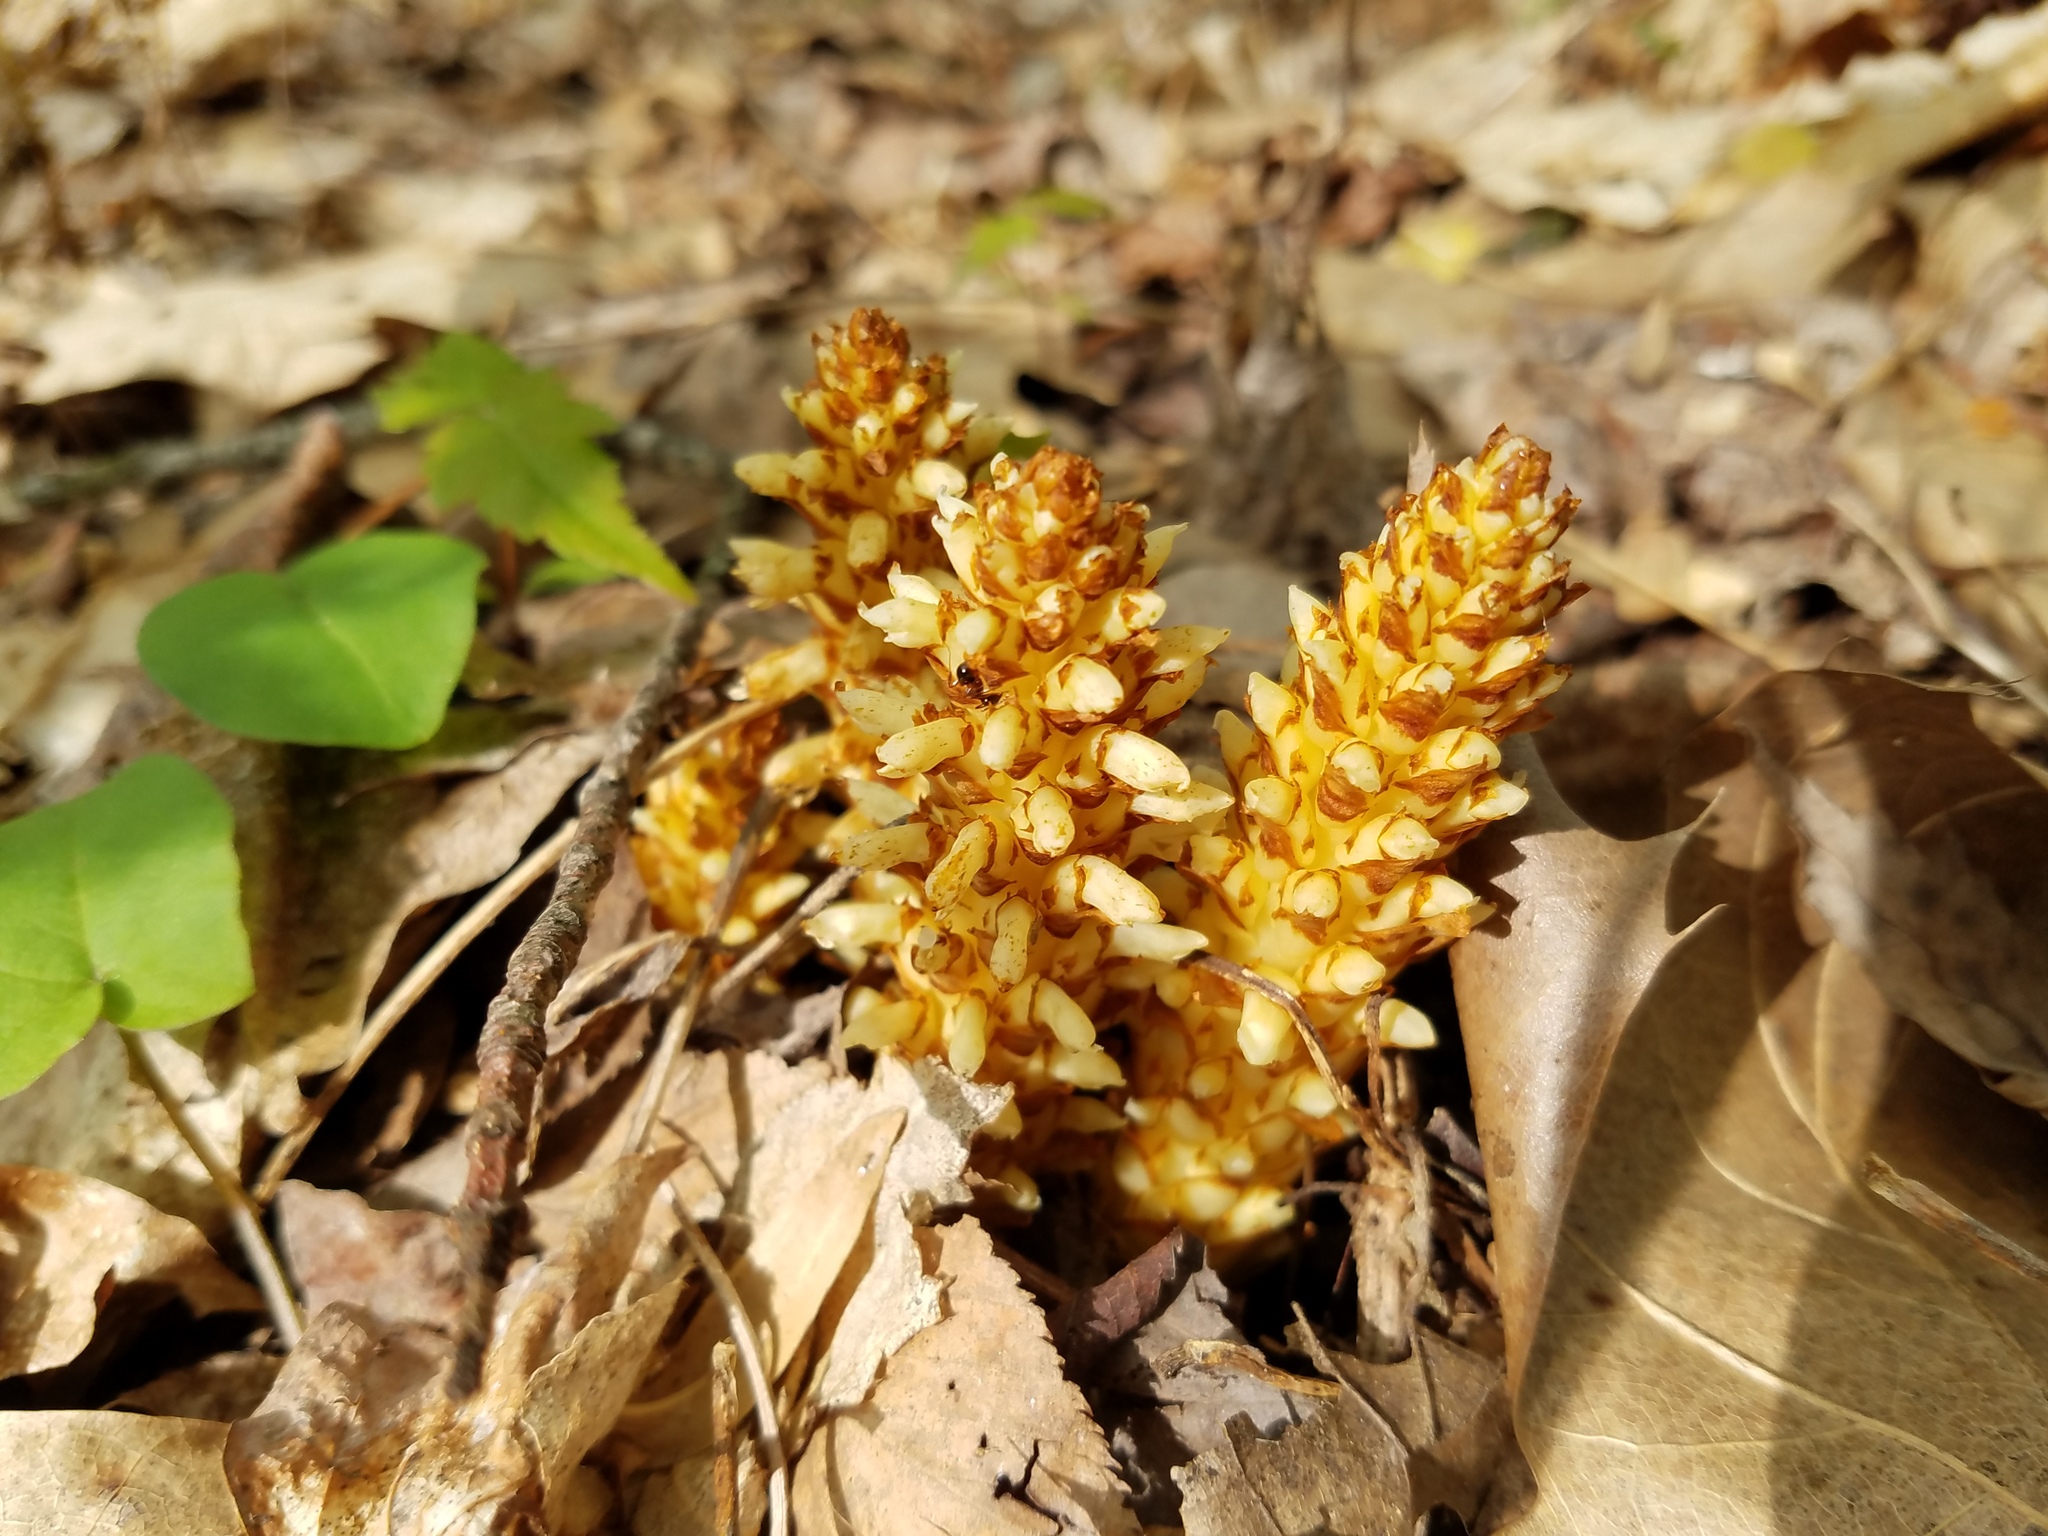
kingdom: Plantae
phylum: Tracheophyta
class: Magnoliopsida
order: Lamiales
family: Orobanchaceae
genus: Conopholis
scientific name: Conopholis americana
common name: American cancer-root
